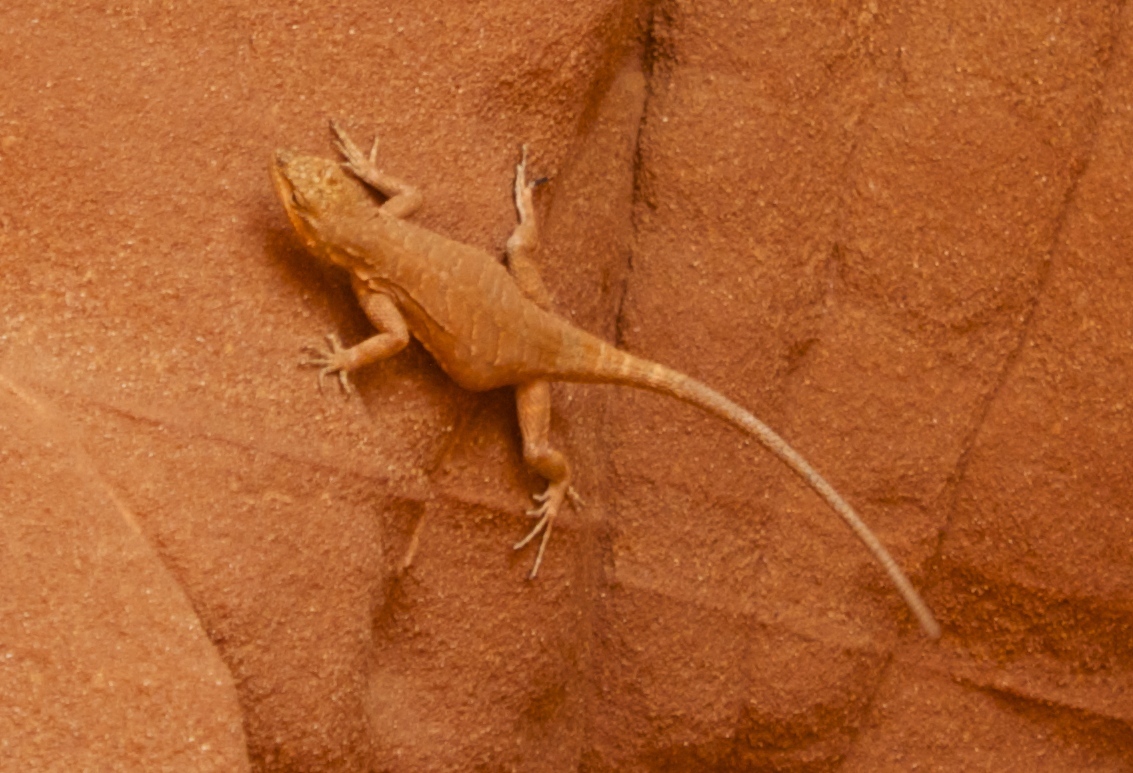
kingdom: Animalia
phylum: Chordata
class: Squamata
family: Phrynosomatidae
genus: Urosaurus
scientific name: Urosaurus ornatus
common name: Ornate tree lizard
